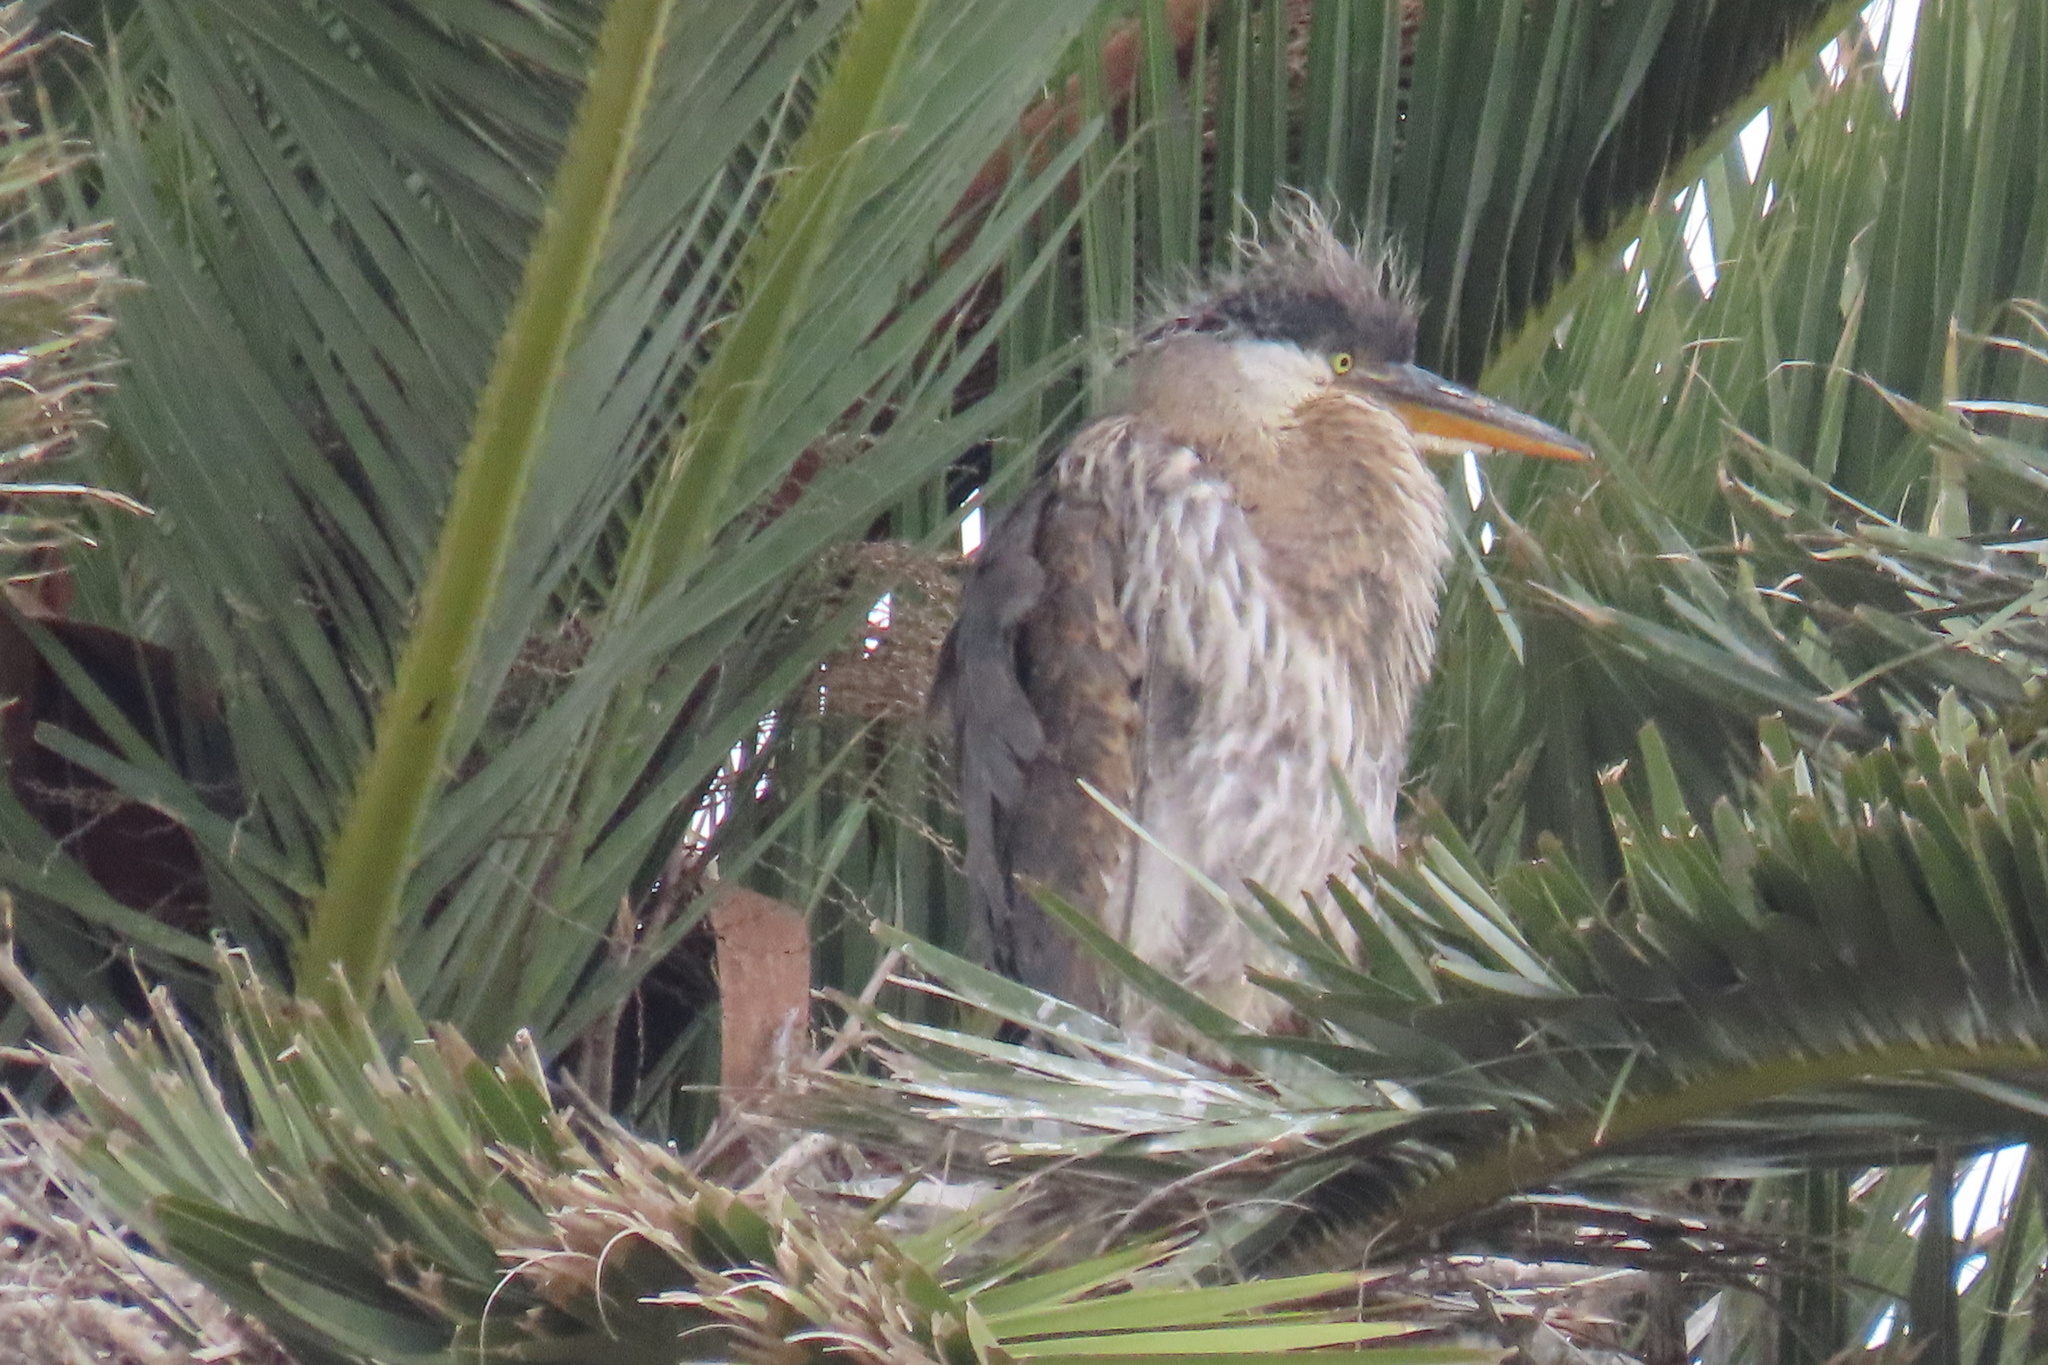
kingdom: Animalia
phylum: Chordata
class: Aves
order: Pelecaniformes
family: Ardeidae
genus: Ardea
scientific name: Ardea herodias
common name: Great blue heron
